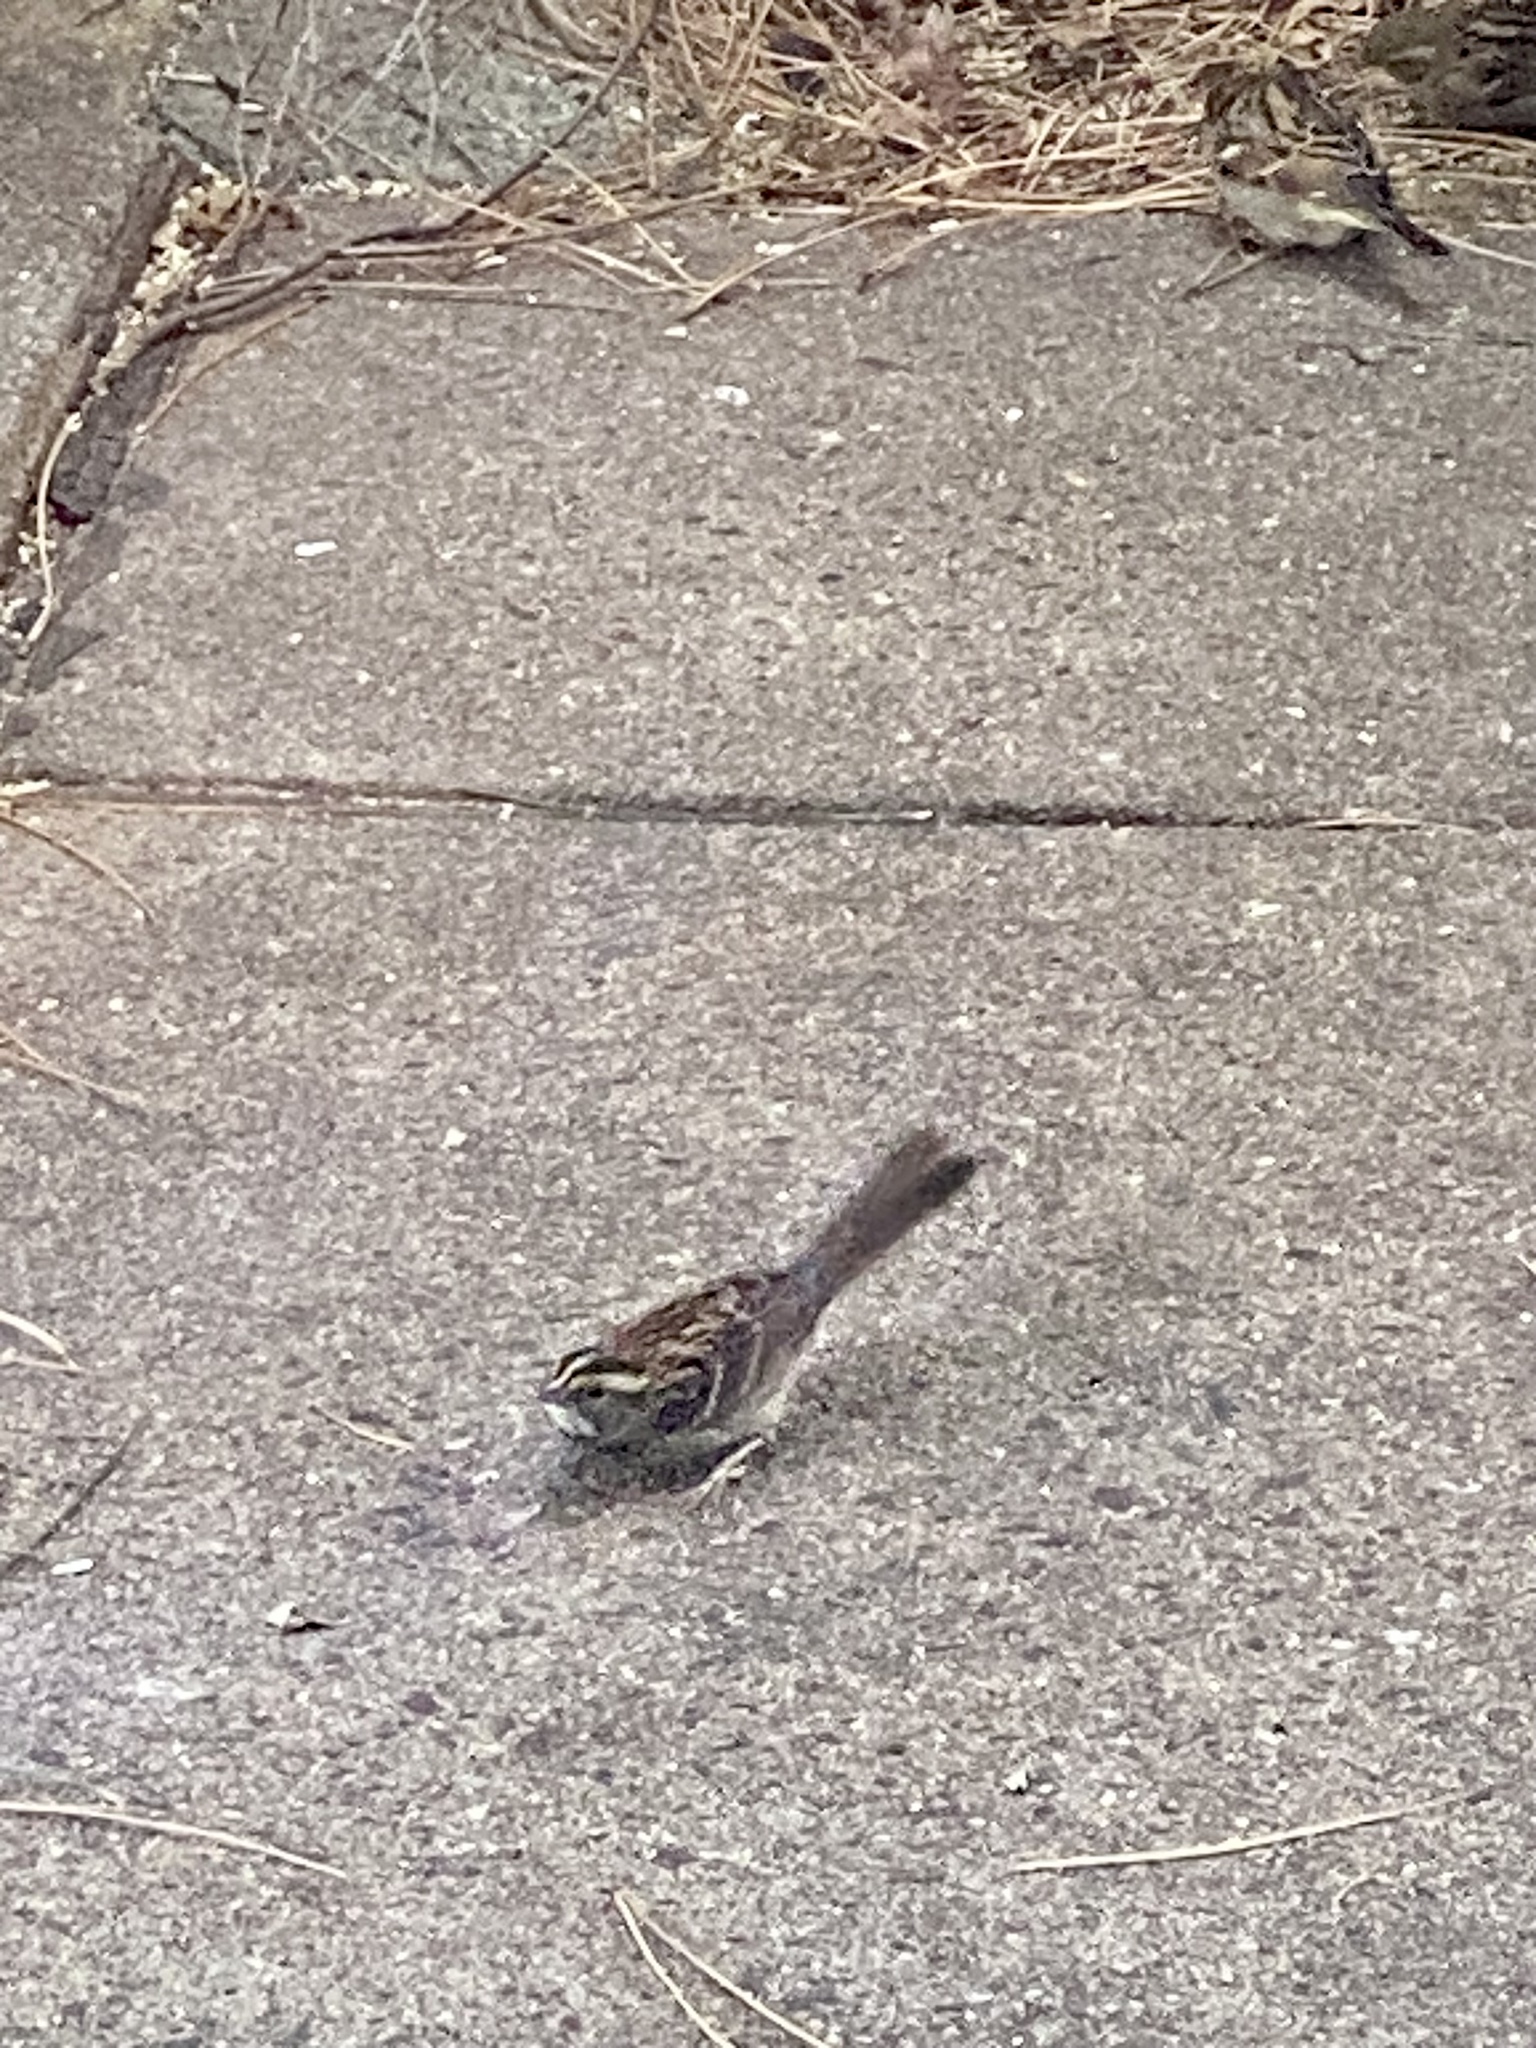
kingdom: Animalia
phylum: Chordata
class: Aves
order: Passeriformes
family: Passerellidae
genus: Zonotrichia
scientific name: Zonotrichia albicollis
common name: White-throated sparrow
